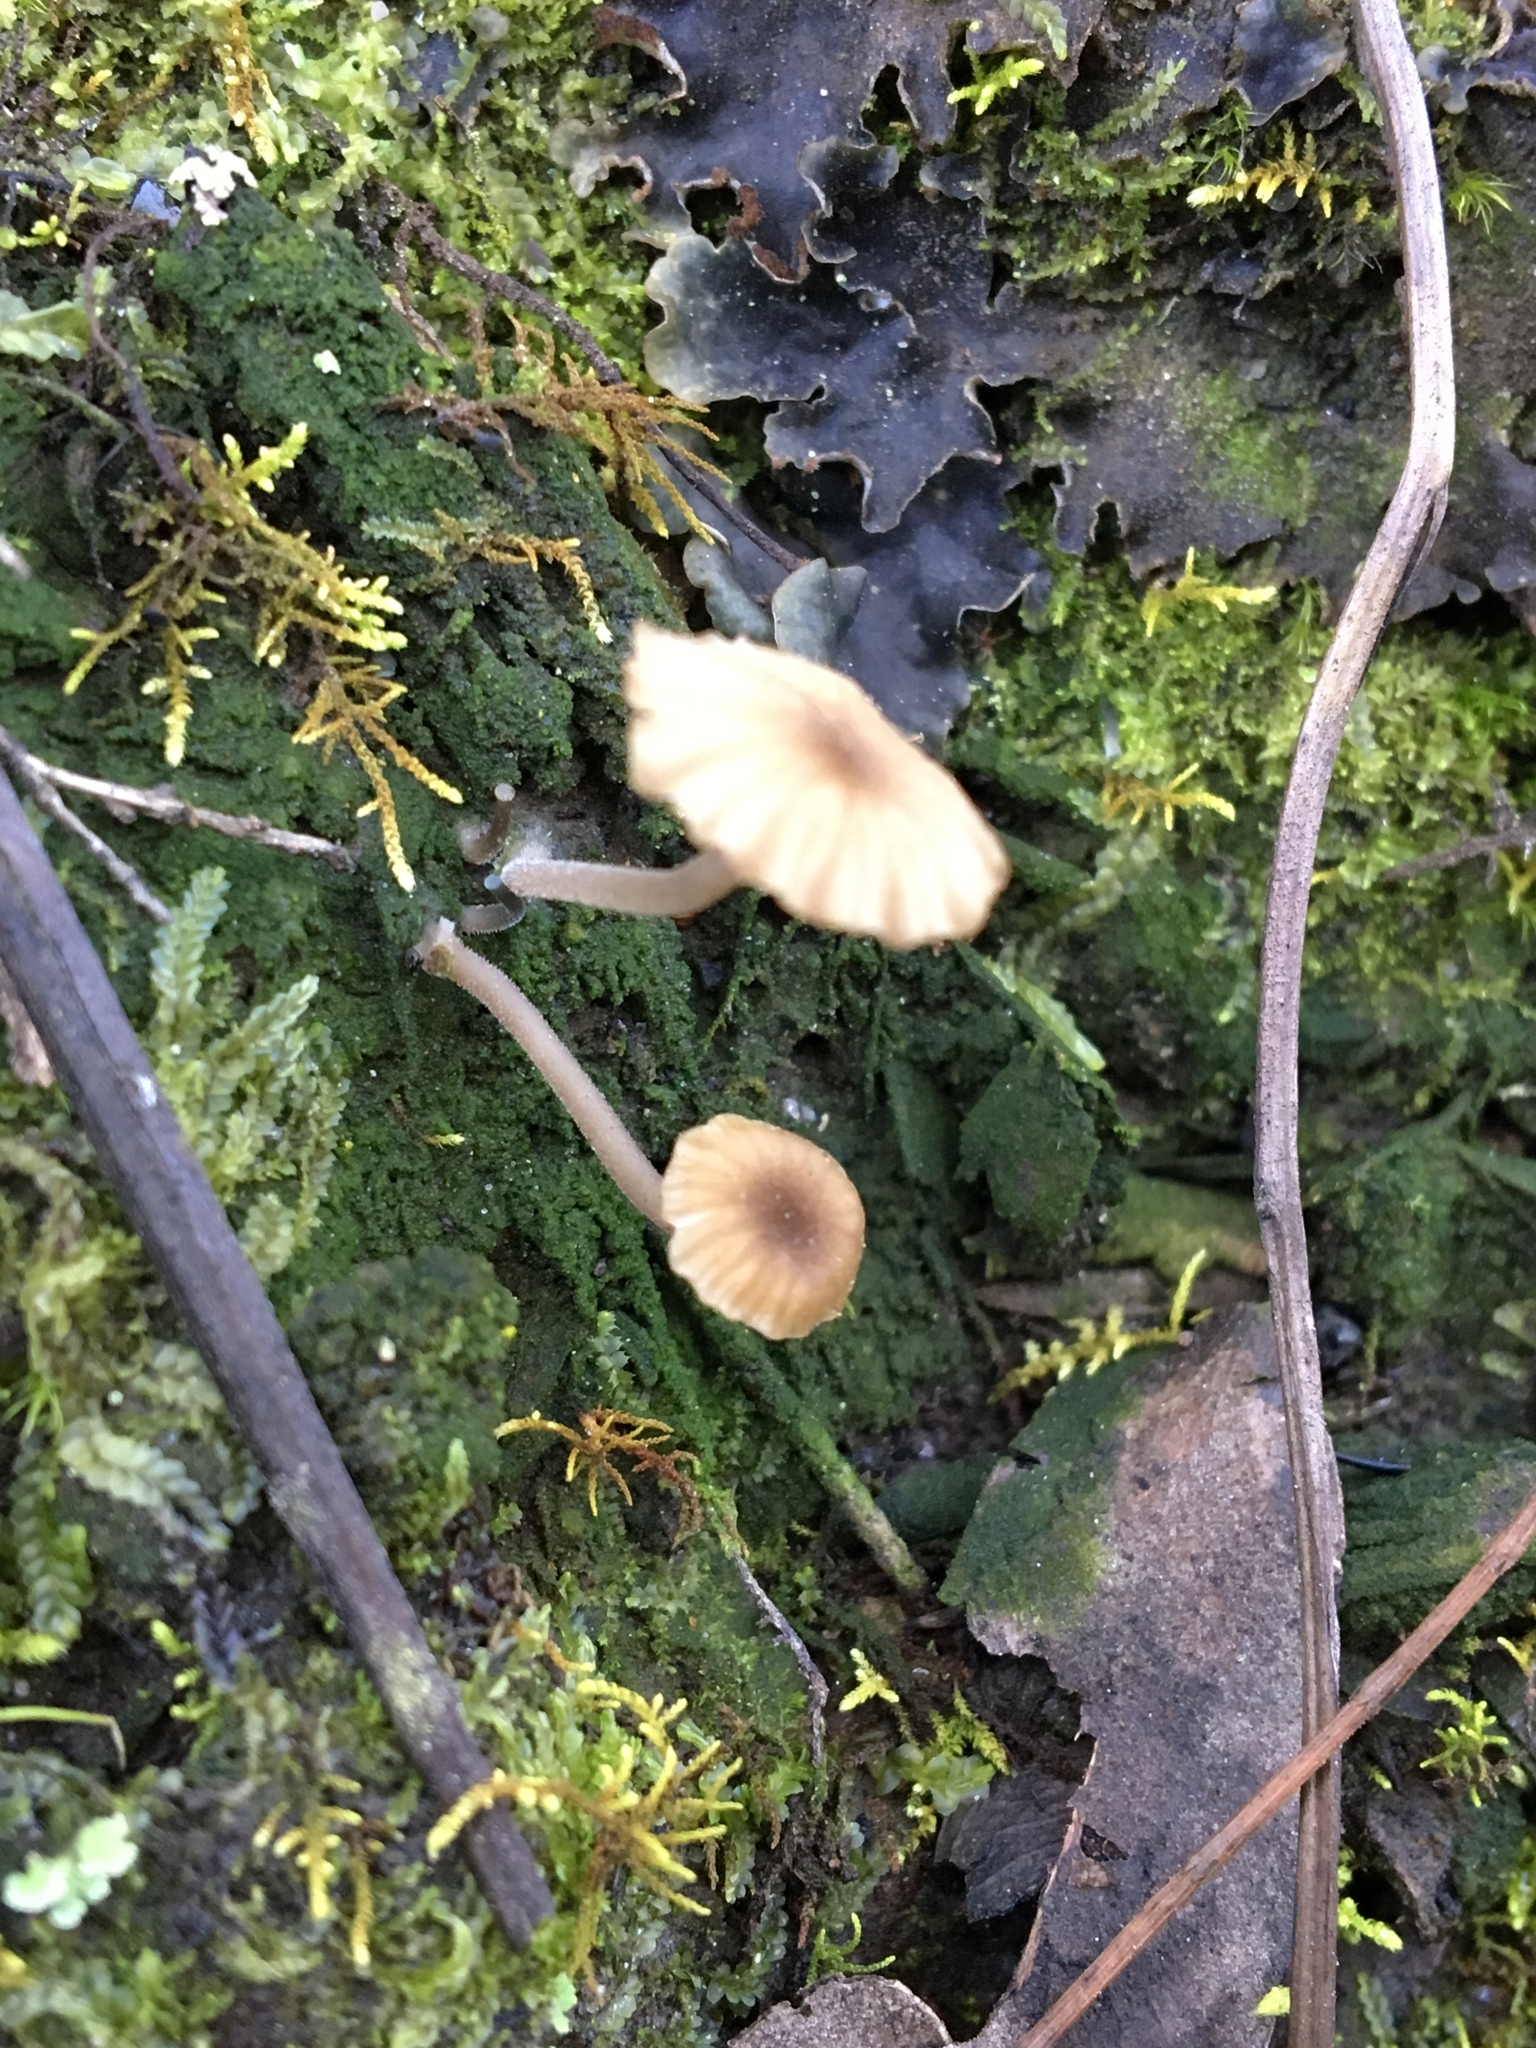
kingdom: Fungi
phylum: Basidiomycota
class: Agaricomycetes
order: Agaricales
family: Hygrophoraceae
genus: Lichenomphalia
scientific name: Lichenomphalia
